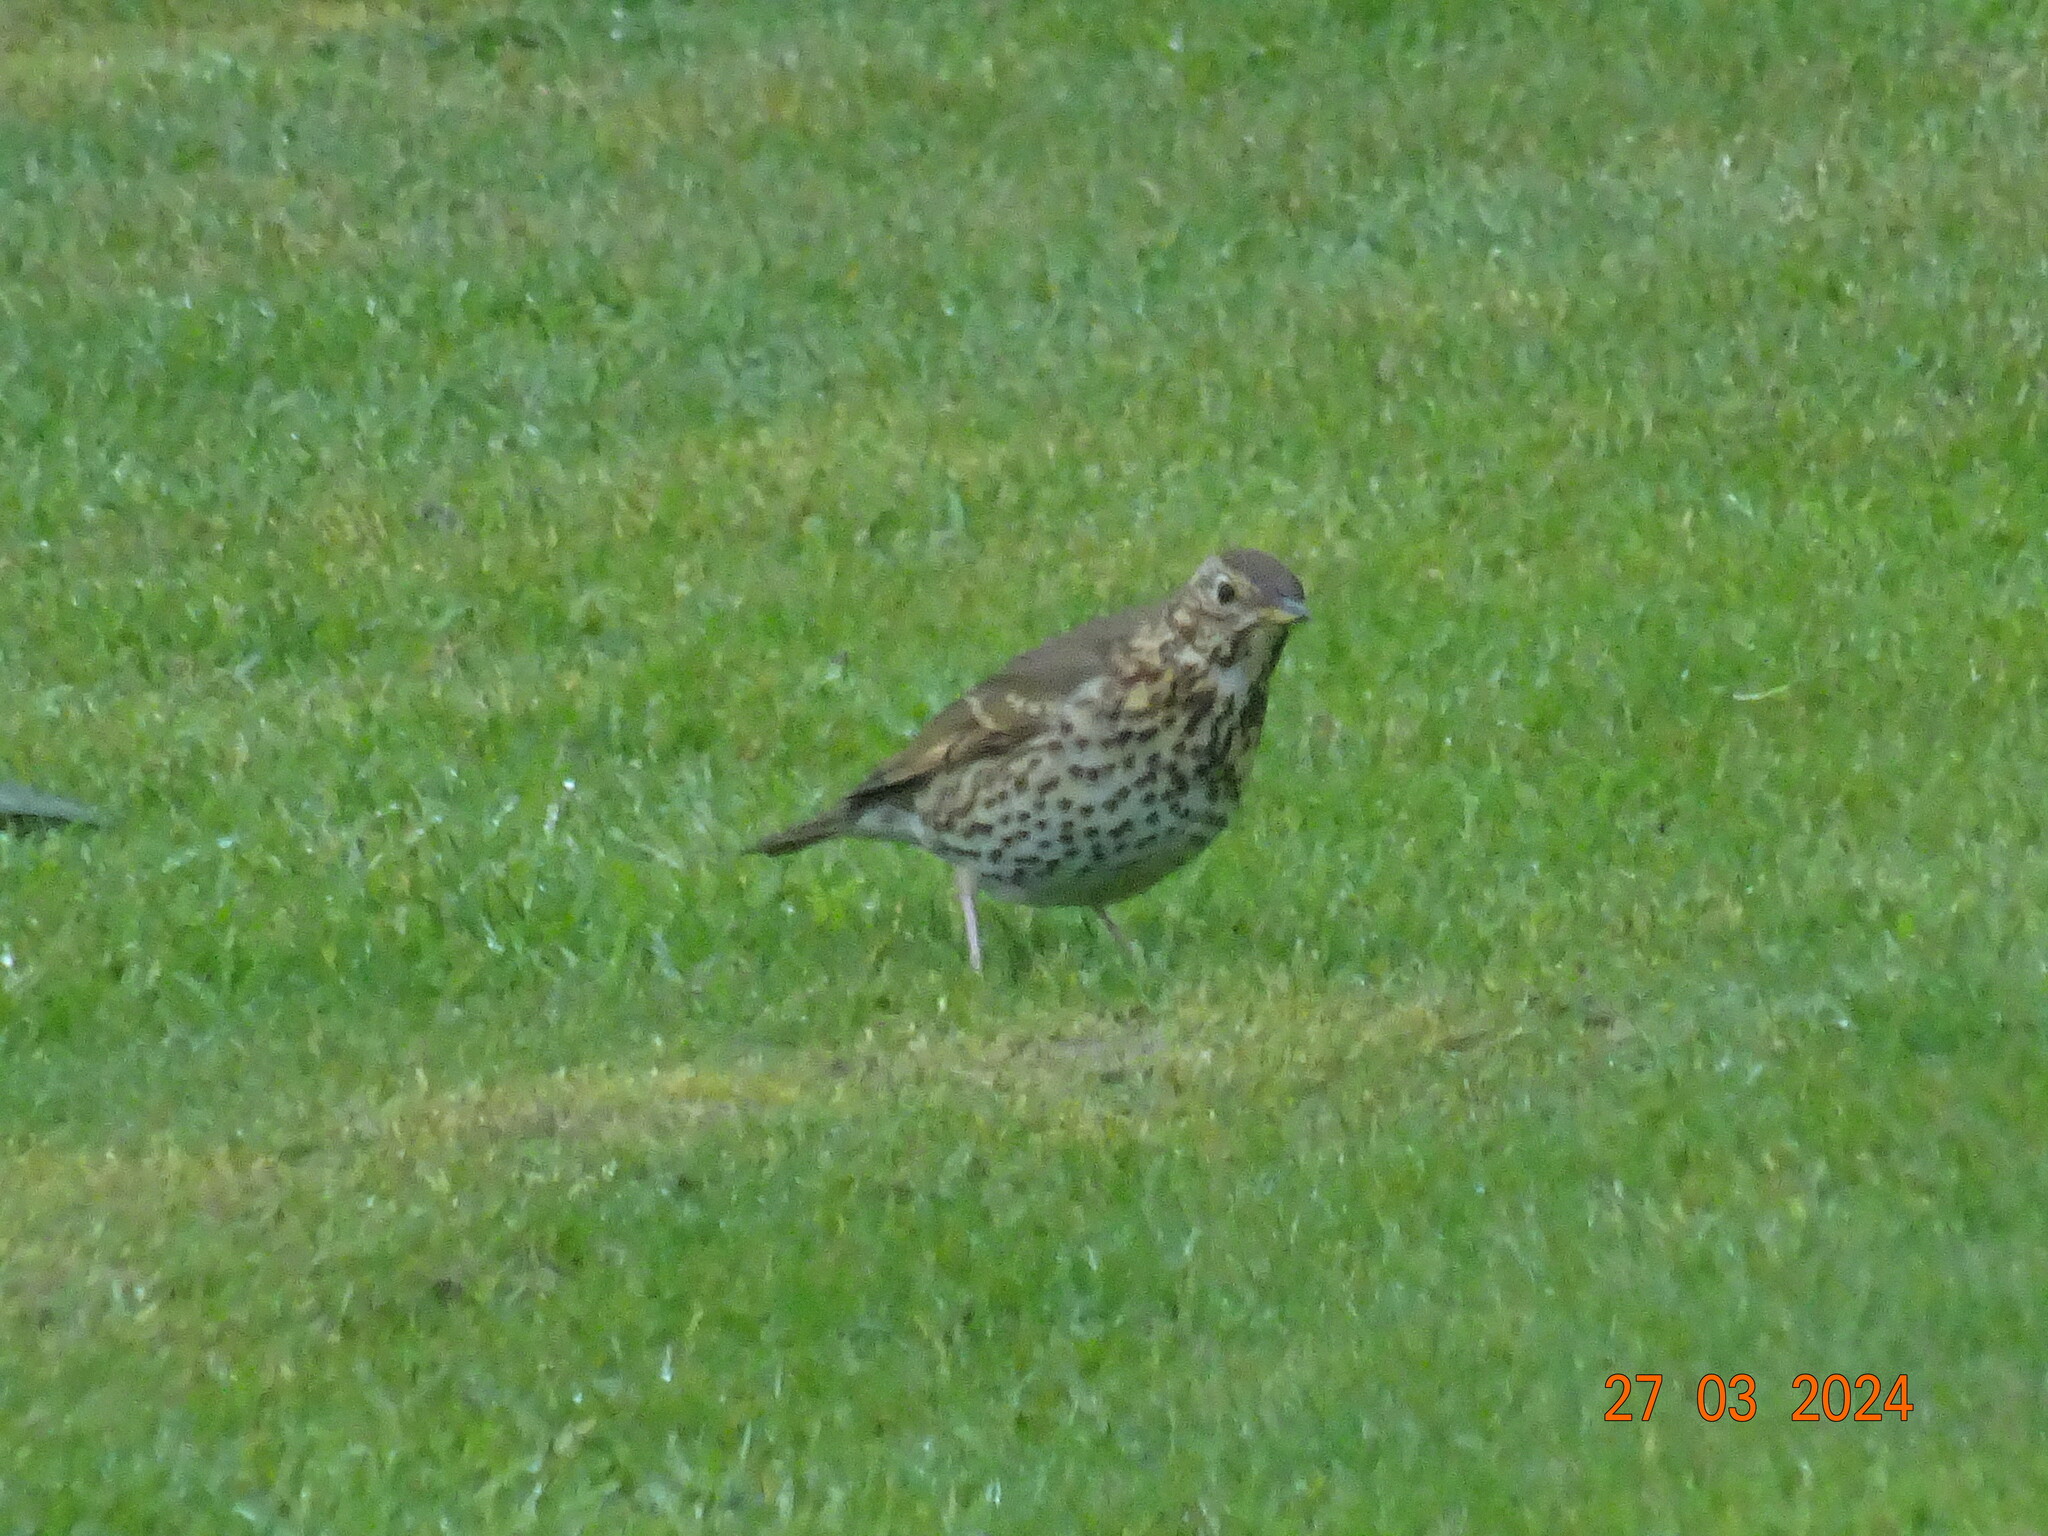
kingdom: Animalia
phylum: Chordata
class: Aves
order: Passeriformes
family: Turdidae
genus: Turdus
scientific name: Turdus philomelos
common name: Song thrush
